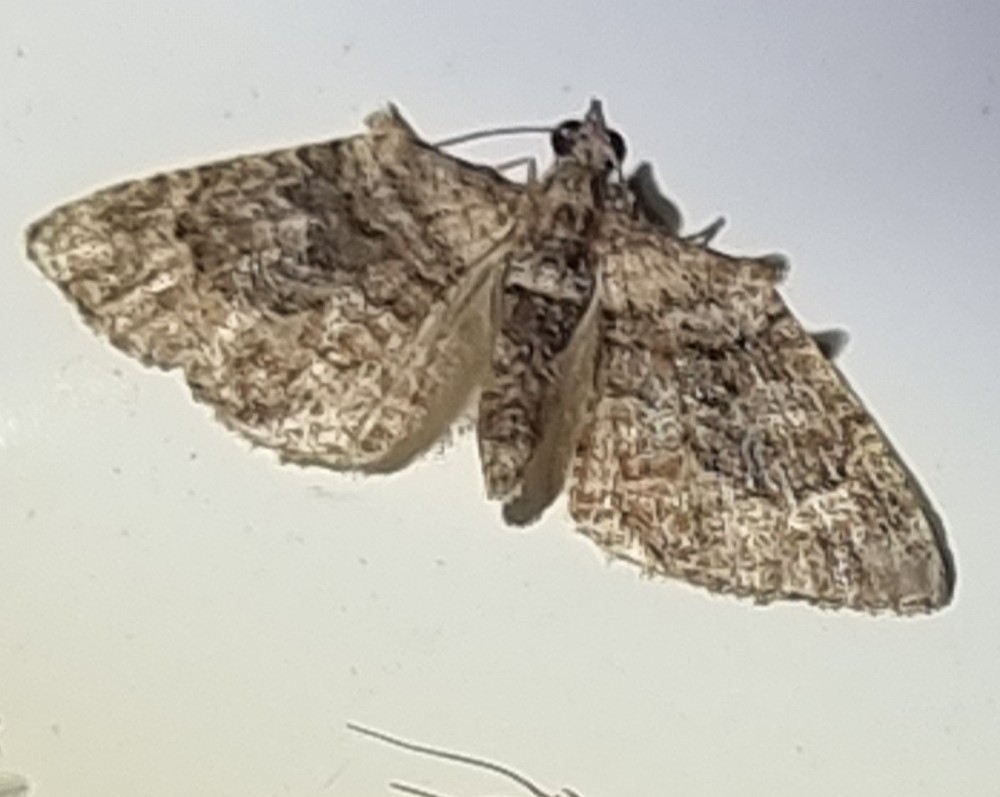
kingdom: Animalia
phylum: Arthropoda
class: Insecta
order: Lepidoptera
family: Geometridae
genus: Phrissogonus
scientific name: Phrissogonus laticostata
